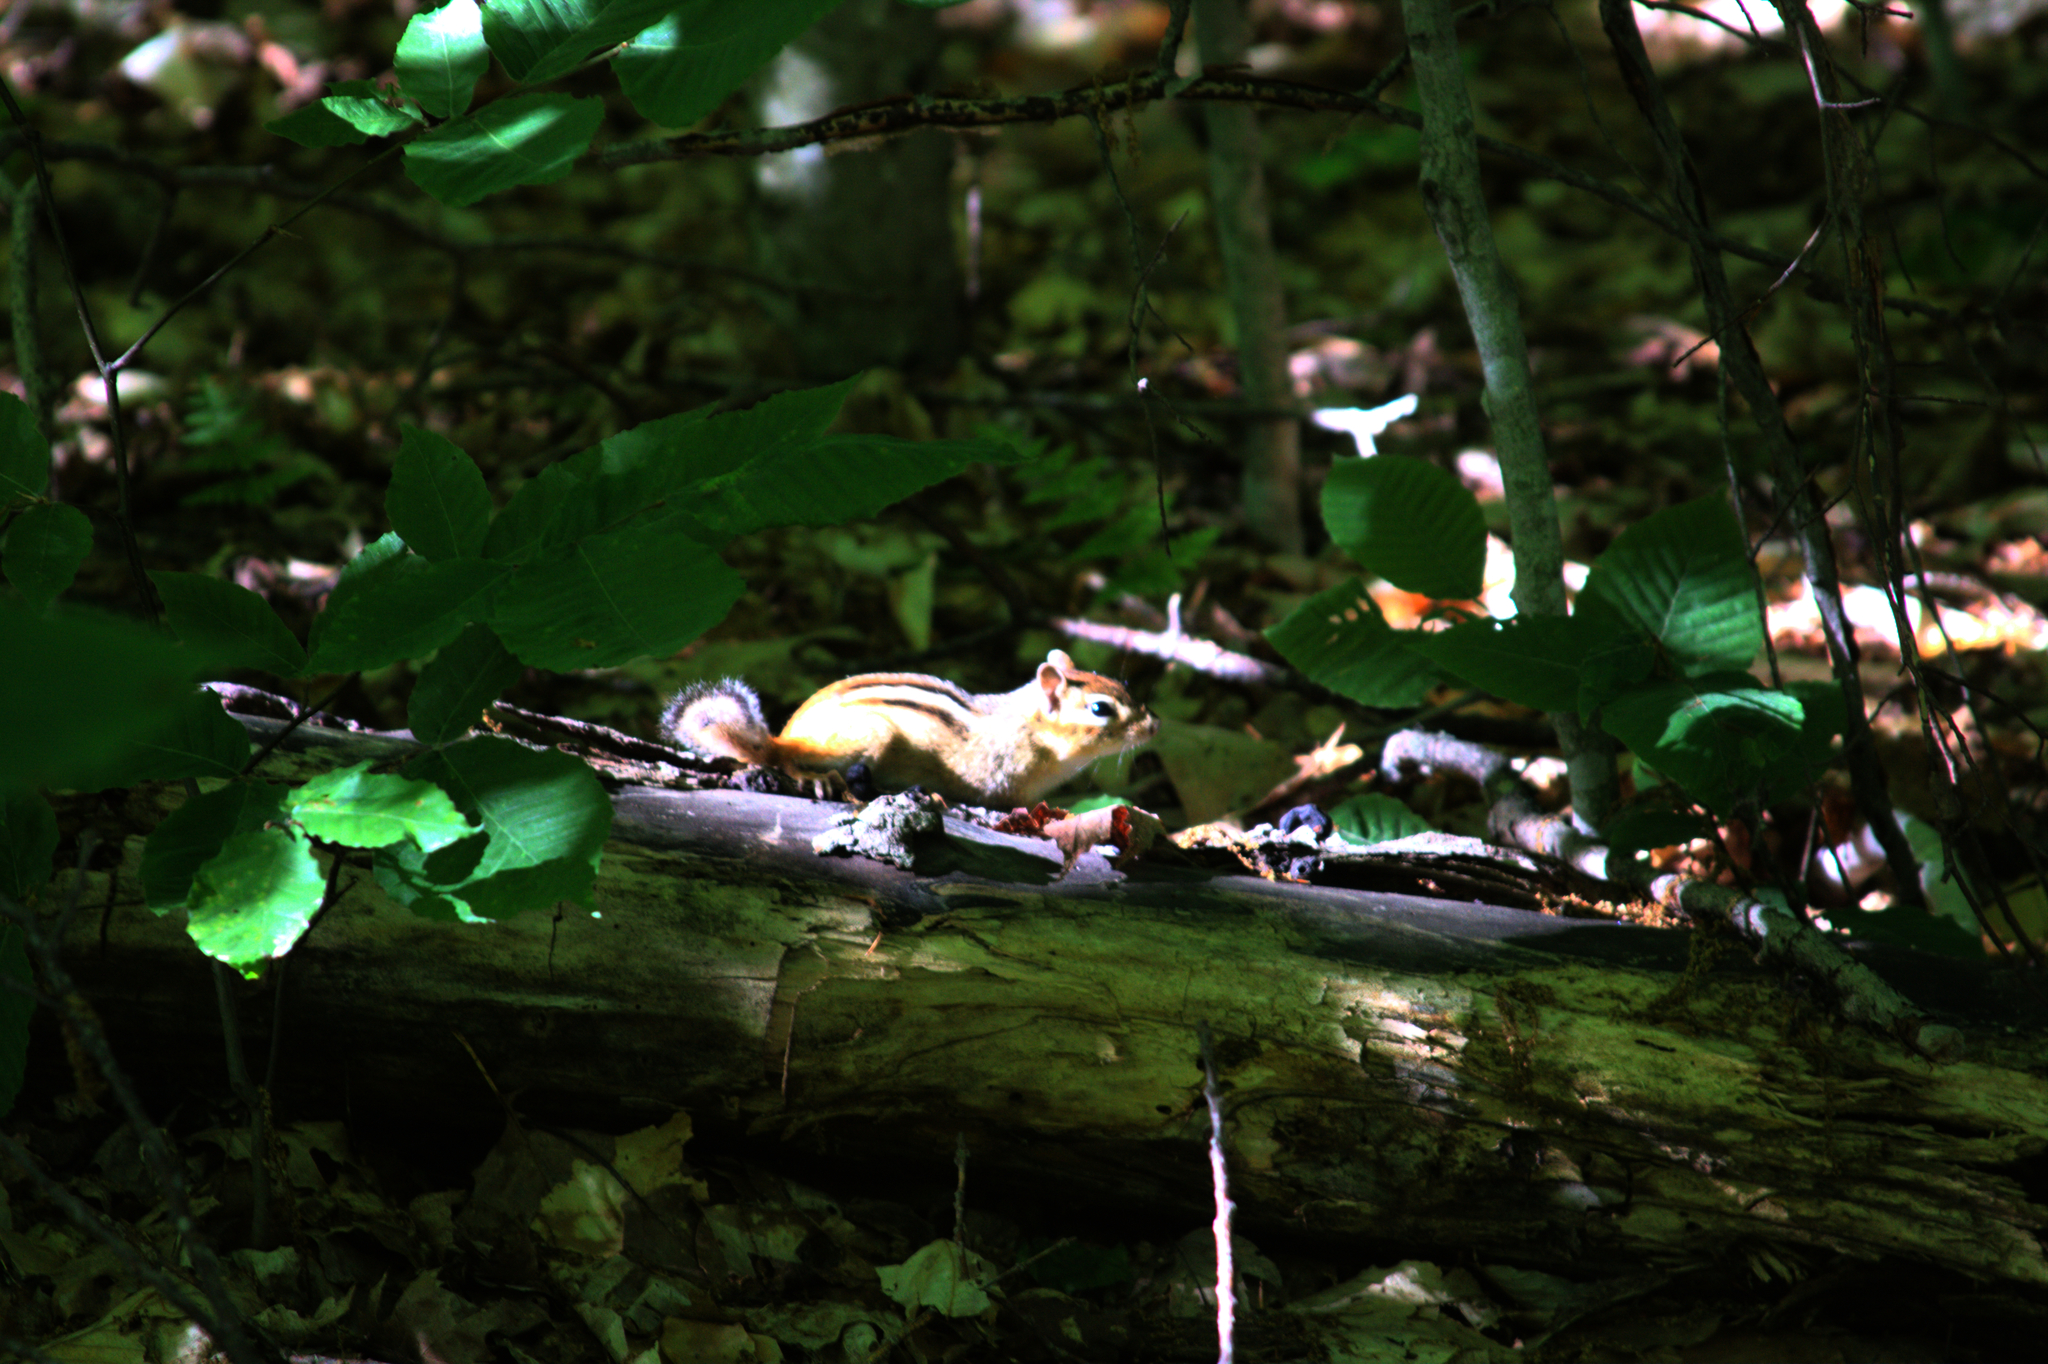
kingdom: Animalia
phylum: Chordata
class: Mammalia
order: Rodentia
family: Sciuridae
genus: Tamias
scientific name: Tamias striatus
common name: Eastern chipmunk
